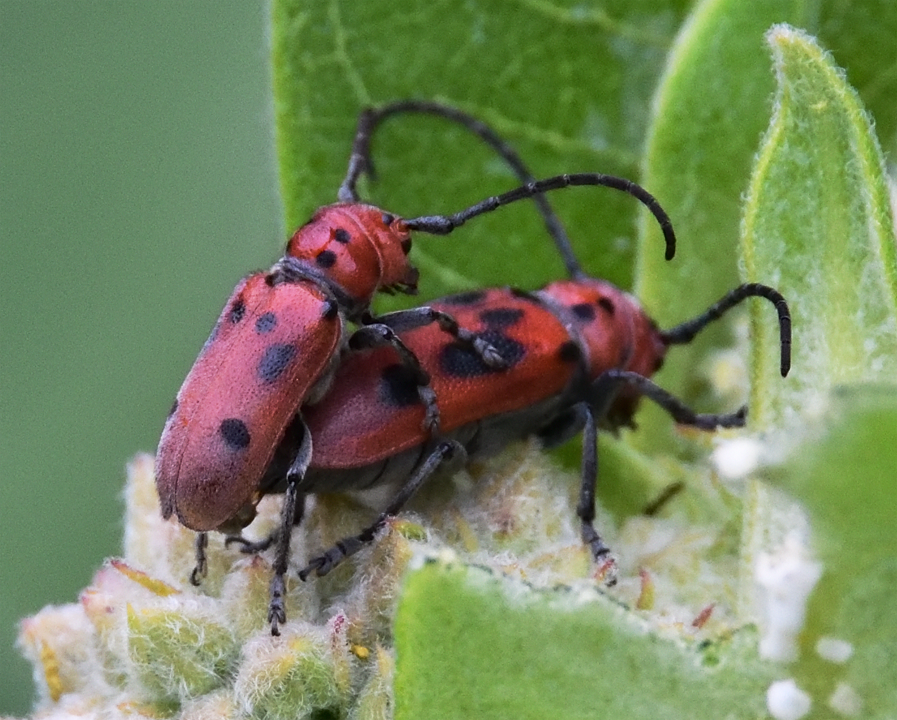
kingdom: Animalia
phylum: Arthropoda
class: Insecta
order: Coleoptera
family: Cerambycidae
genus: Tetraopes
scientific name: Tetraopes tetrophthalmus
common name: Red milkweed beetle
